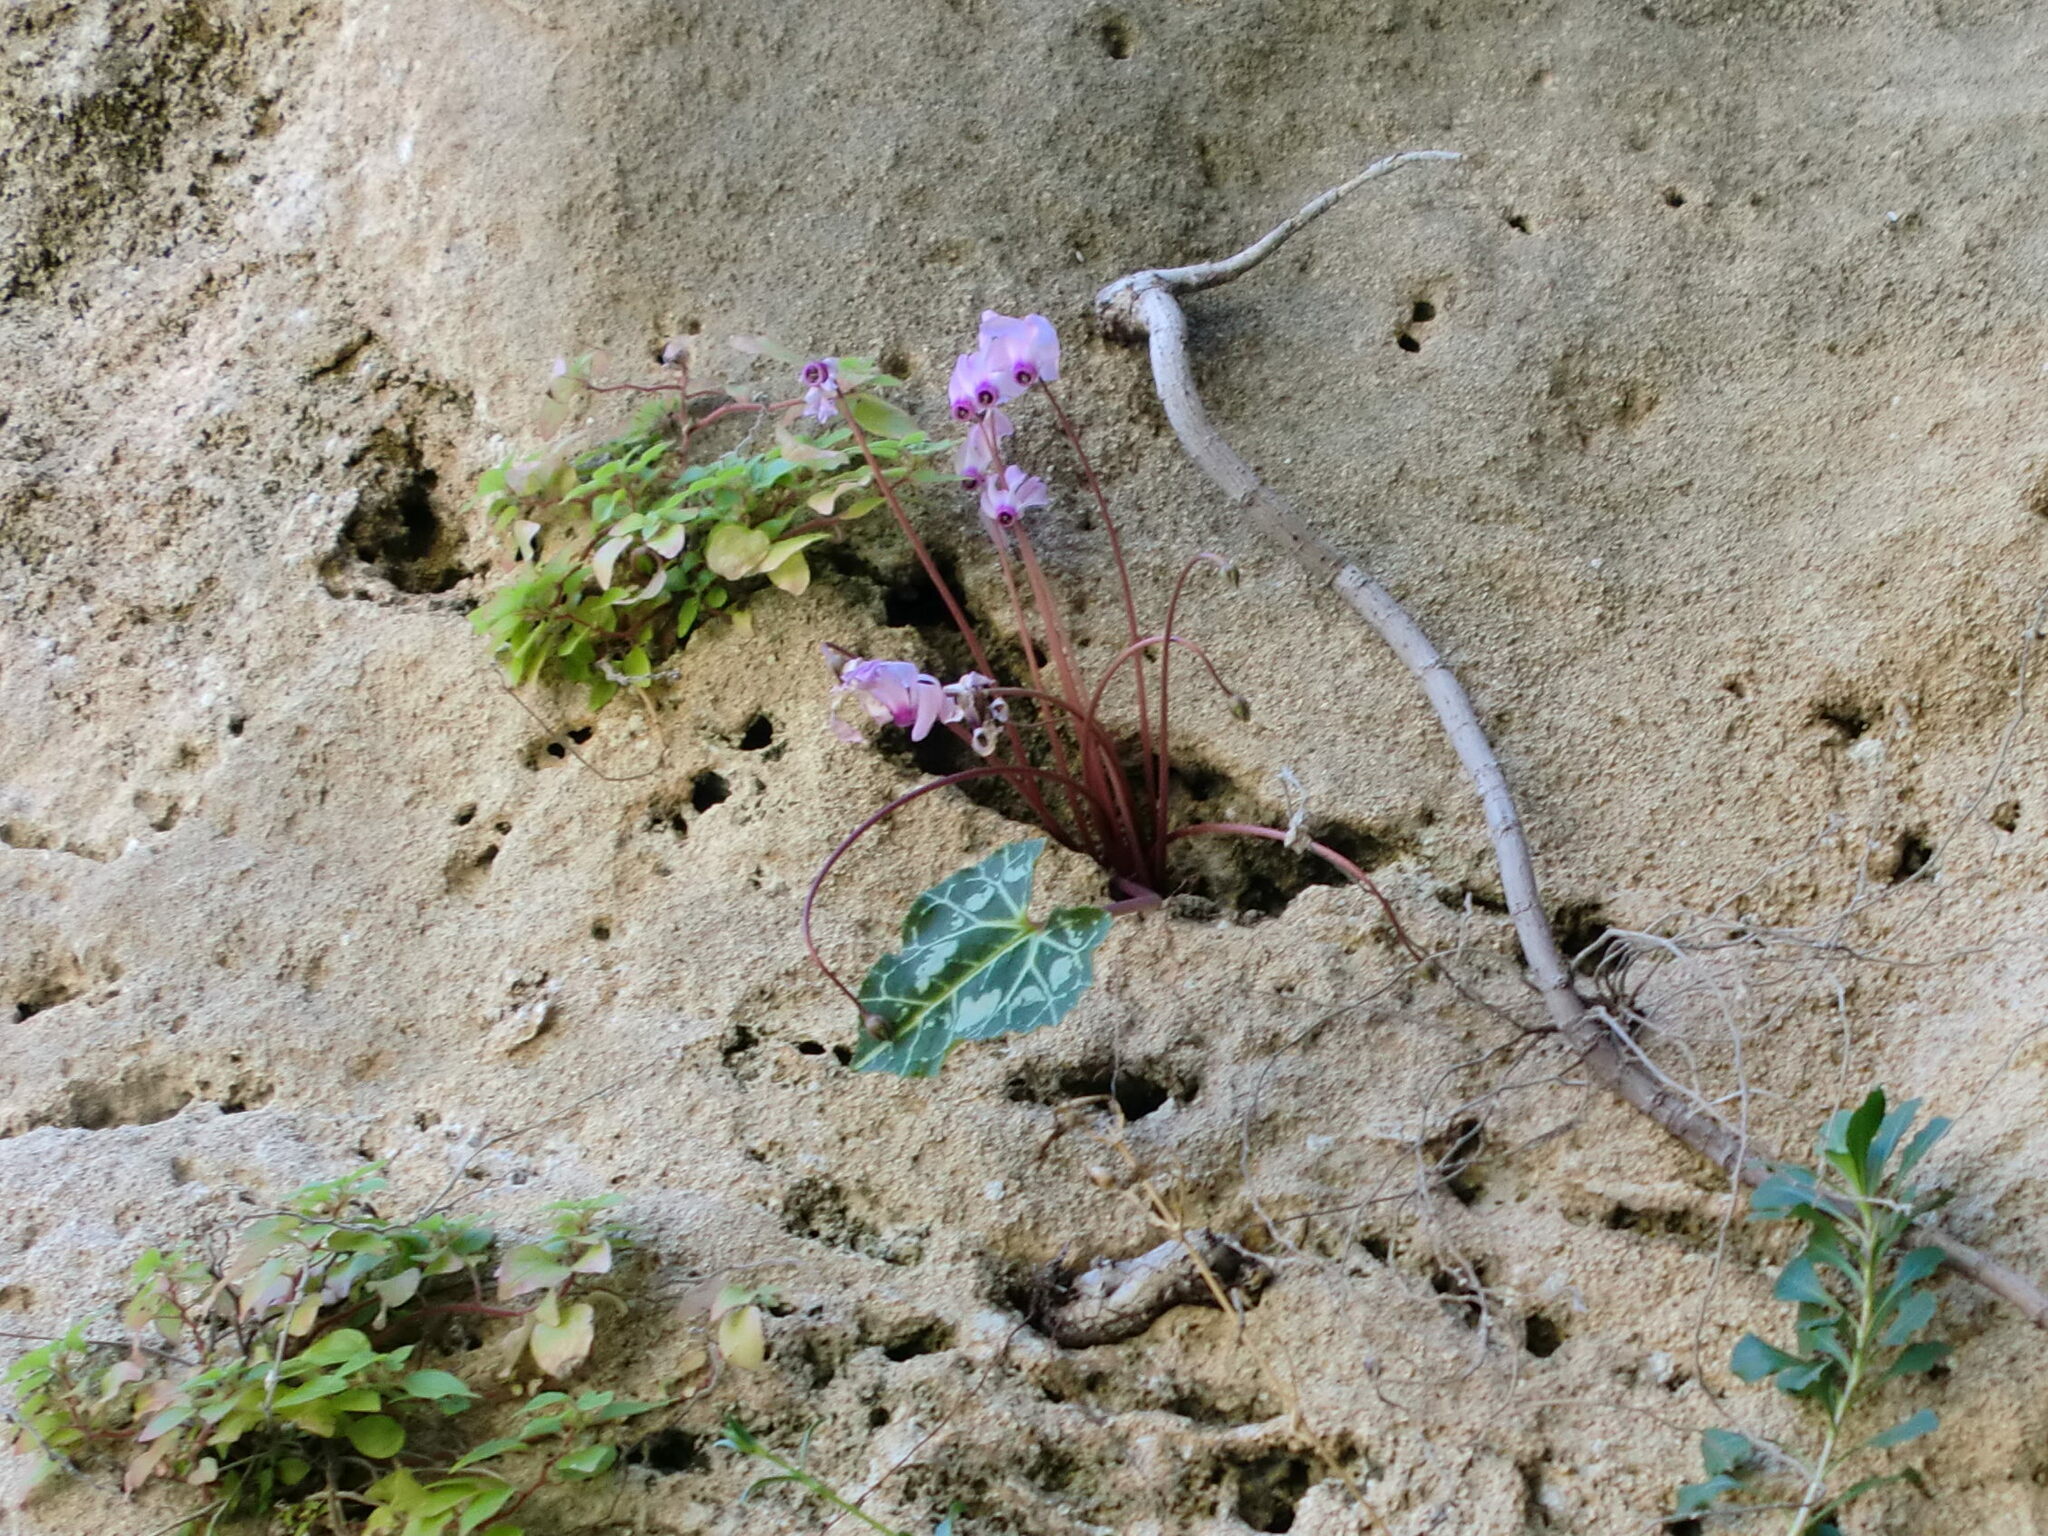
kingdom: Plantae
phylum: Tracheophyta
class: Magnoliopsida
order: Ericales
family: Primulaceae
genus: Cyclamen
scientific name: Cyclamen persicum
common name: Florist's cyclamen
